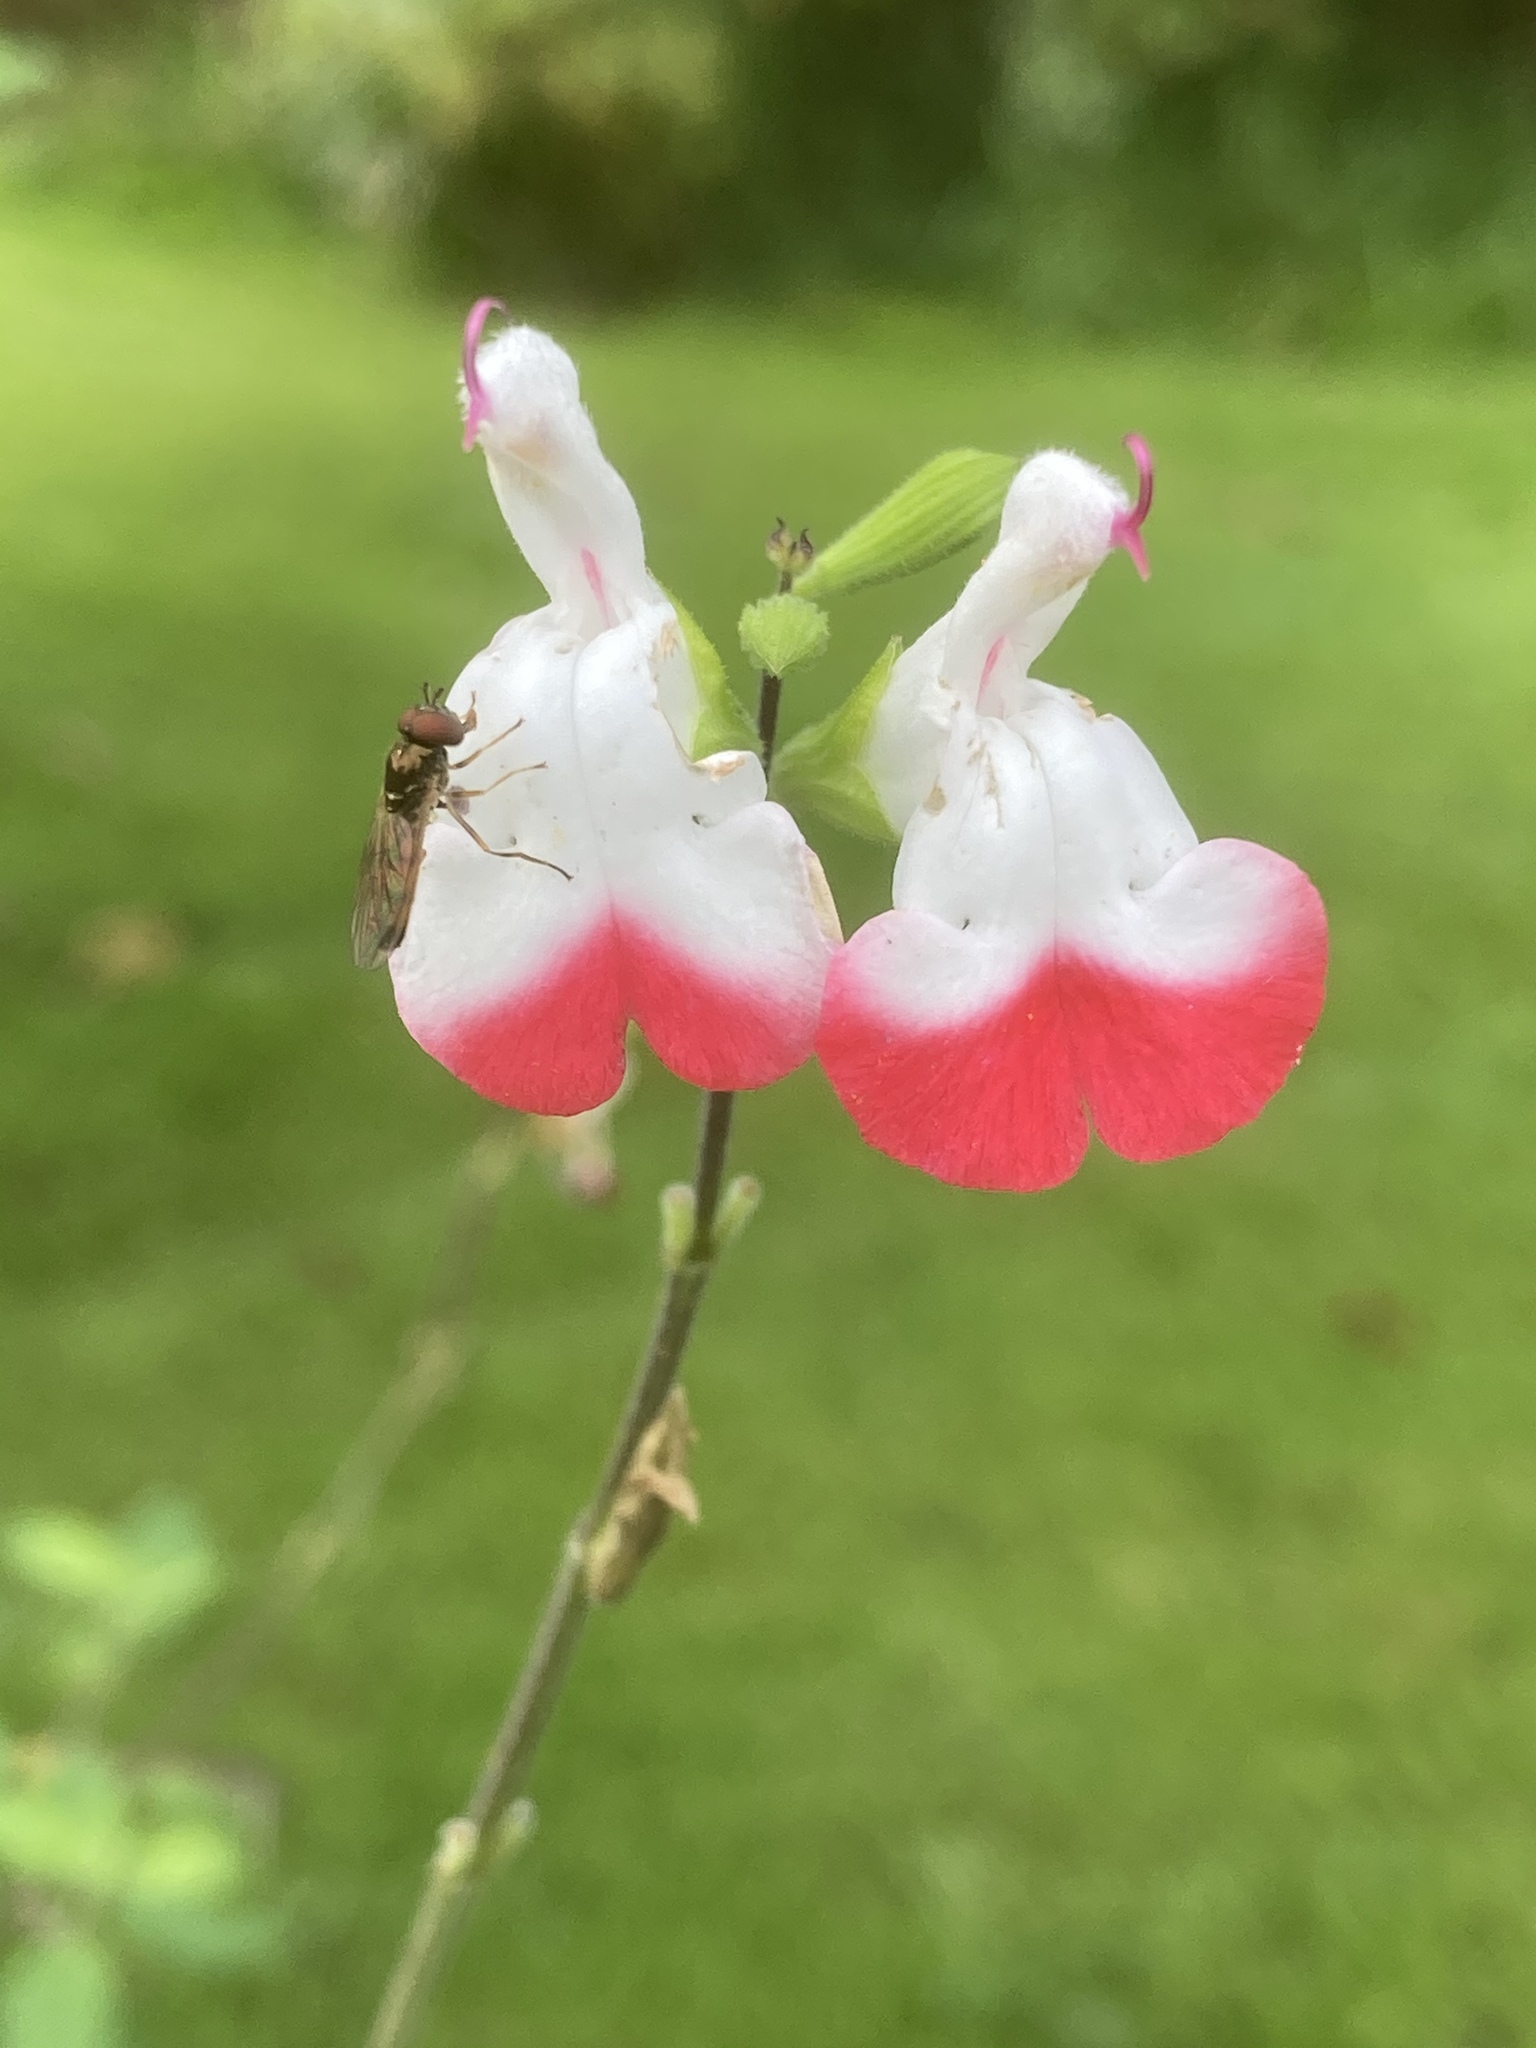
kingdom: Animalia
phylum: Arthropoda
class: Insecta
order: Diptera
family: Syrphidae
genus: Melanostoma
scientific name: Melanostoma mellina
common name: Hover fly
